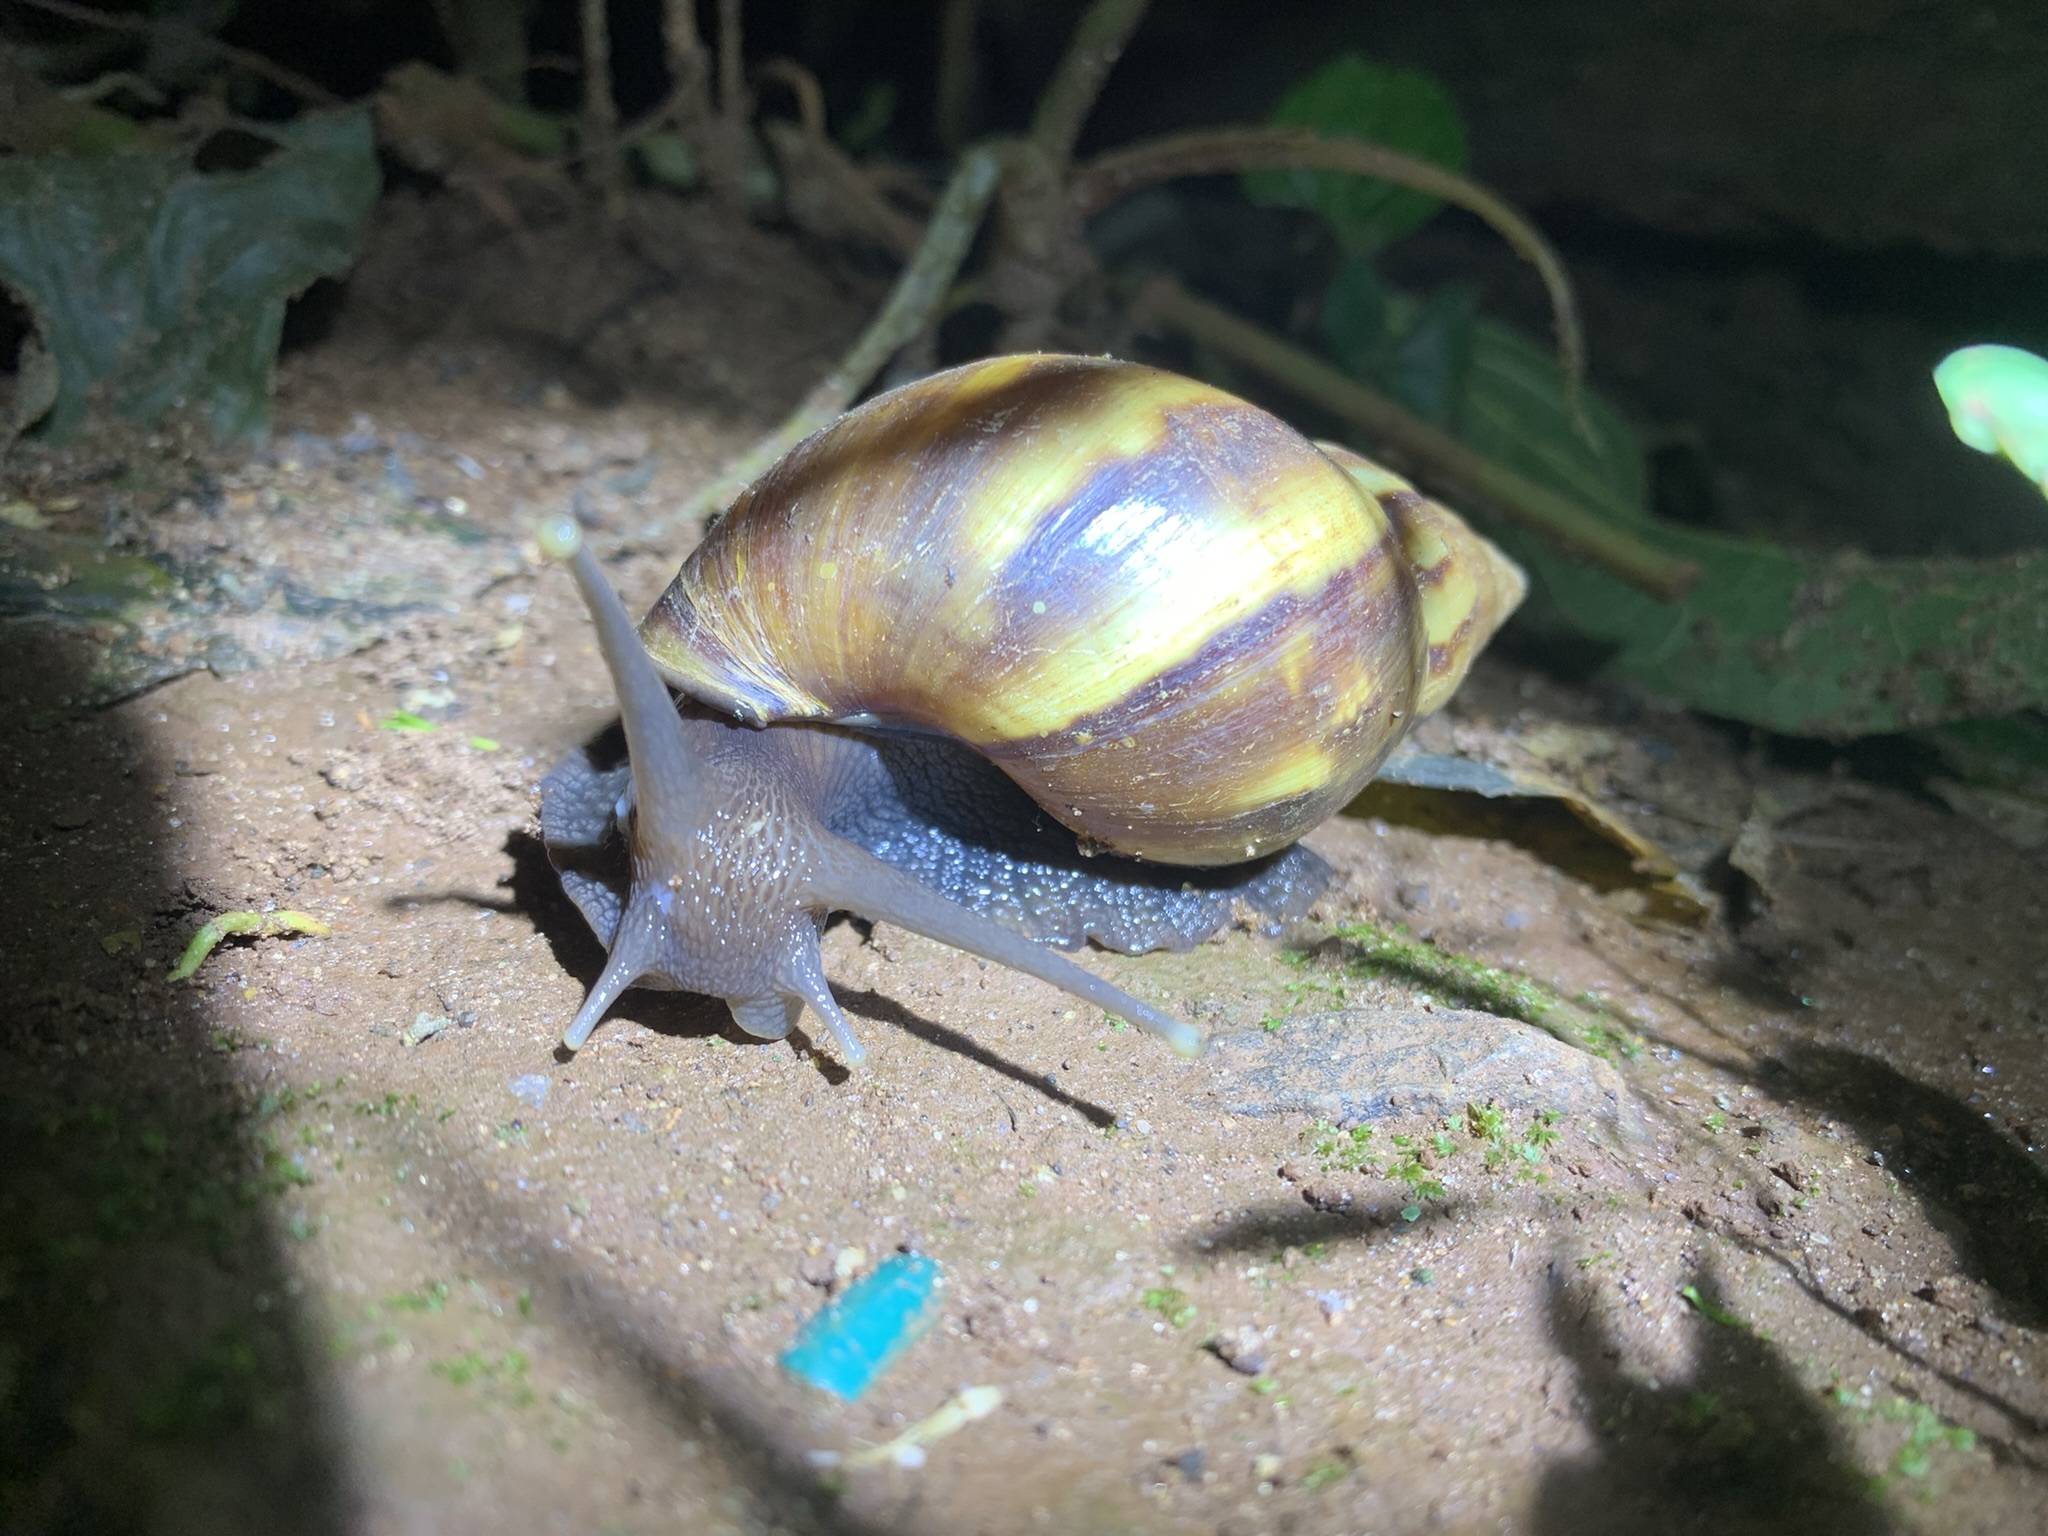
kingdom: Animalia
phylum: Mollusca
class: Gastropoda
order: Stylommatophora
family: Achatinidae
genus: Lissachatina
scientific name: Lissachatina fulica
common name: Giant african snail
